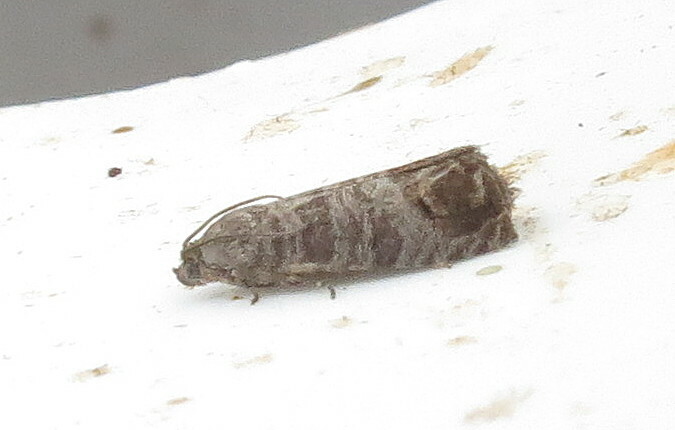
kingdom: Animalia
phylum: Arthropoda
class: Insecta
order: Lepidoptera
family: Tortricidae
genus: Cydia
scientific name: Cydia pomonella
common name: Codling moth
